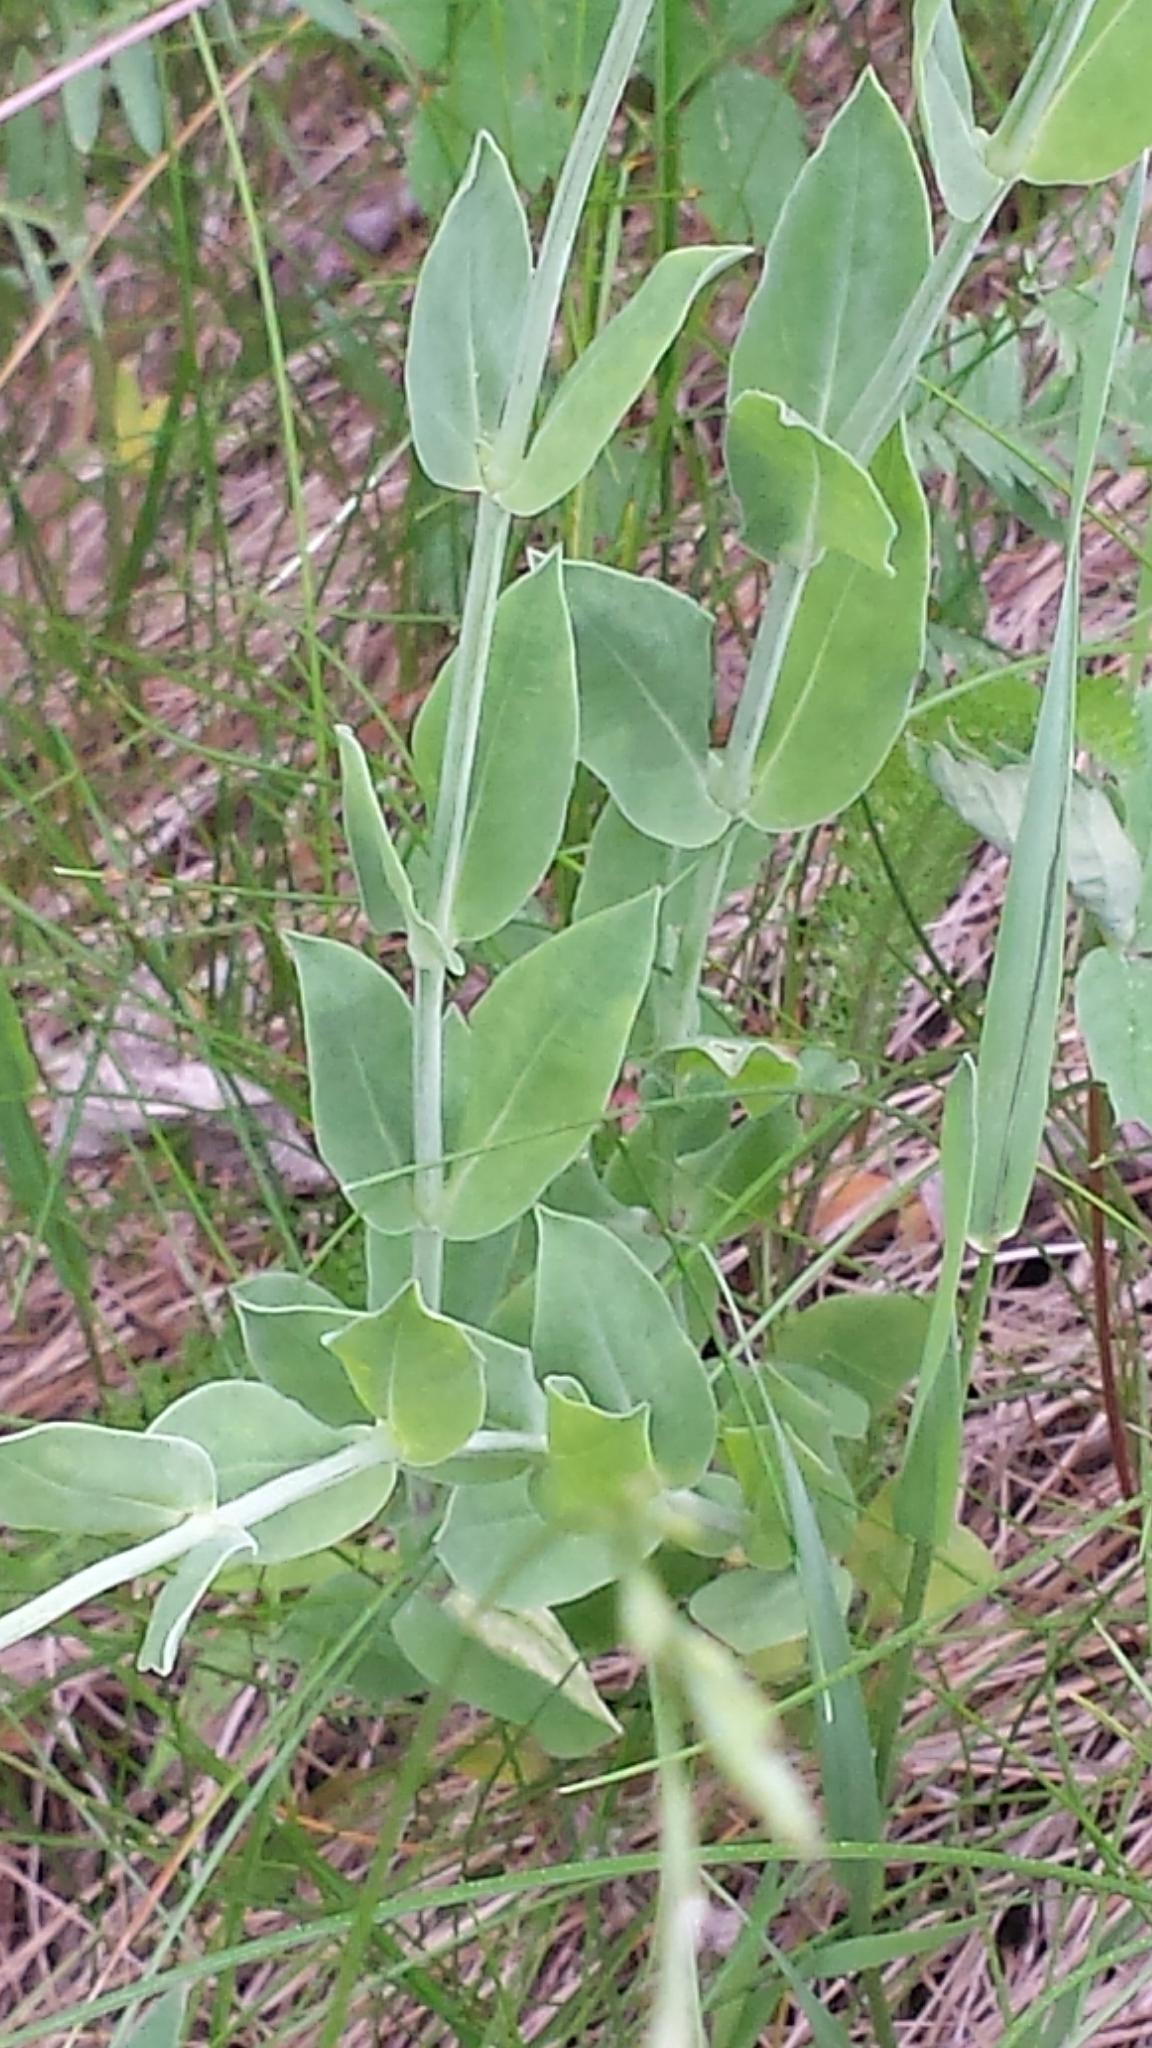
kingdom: Plantae
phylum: Tracheophyta
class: Magnoliopsida
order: Caryophyllales
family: Caryophyllaceae
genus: Silene
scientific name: Silene vulgaris
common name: Bladder campion
